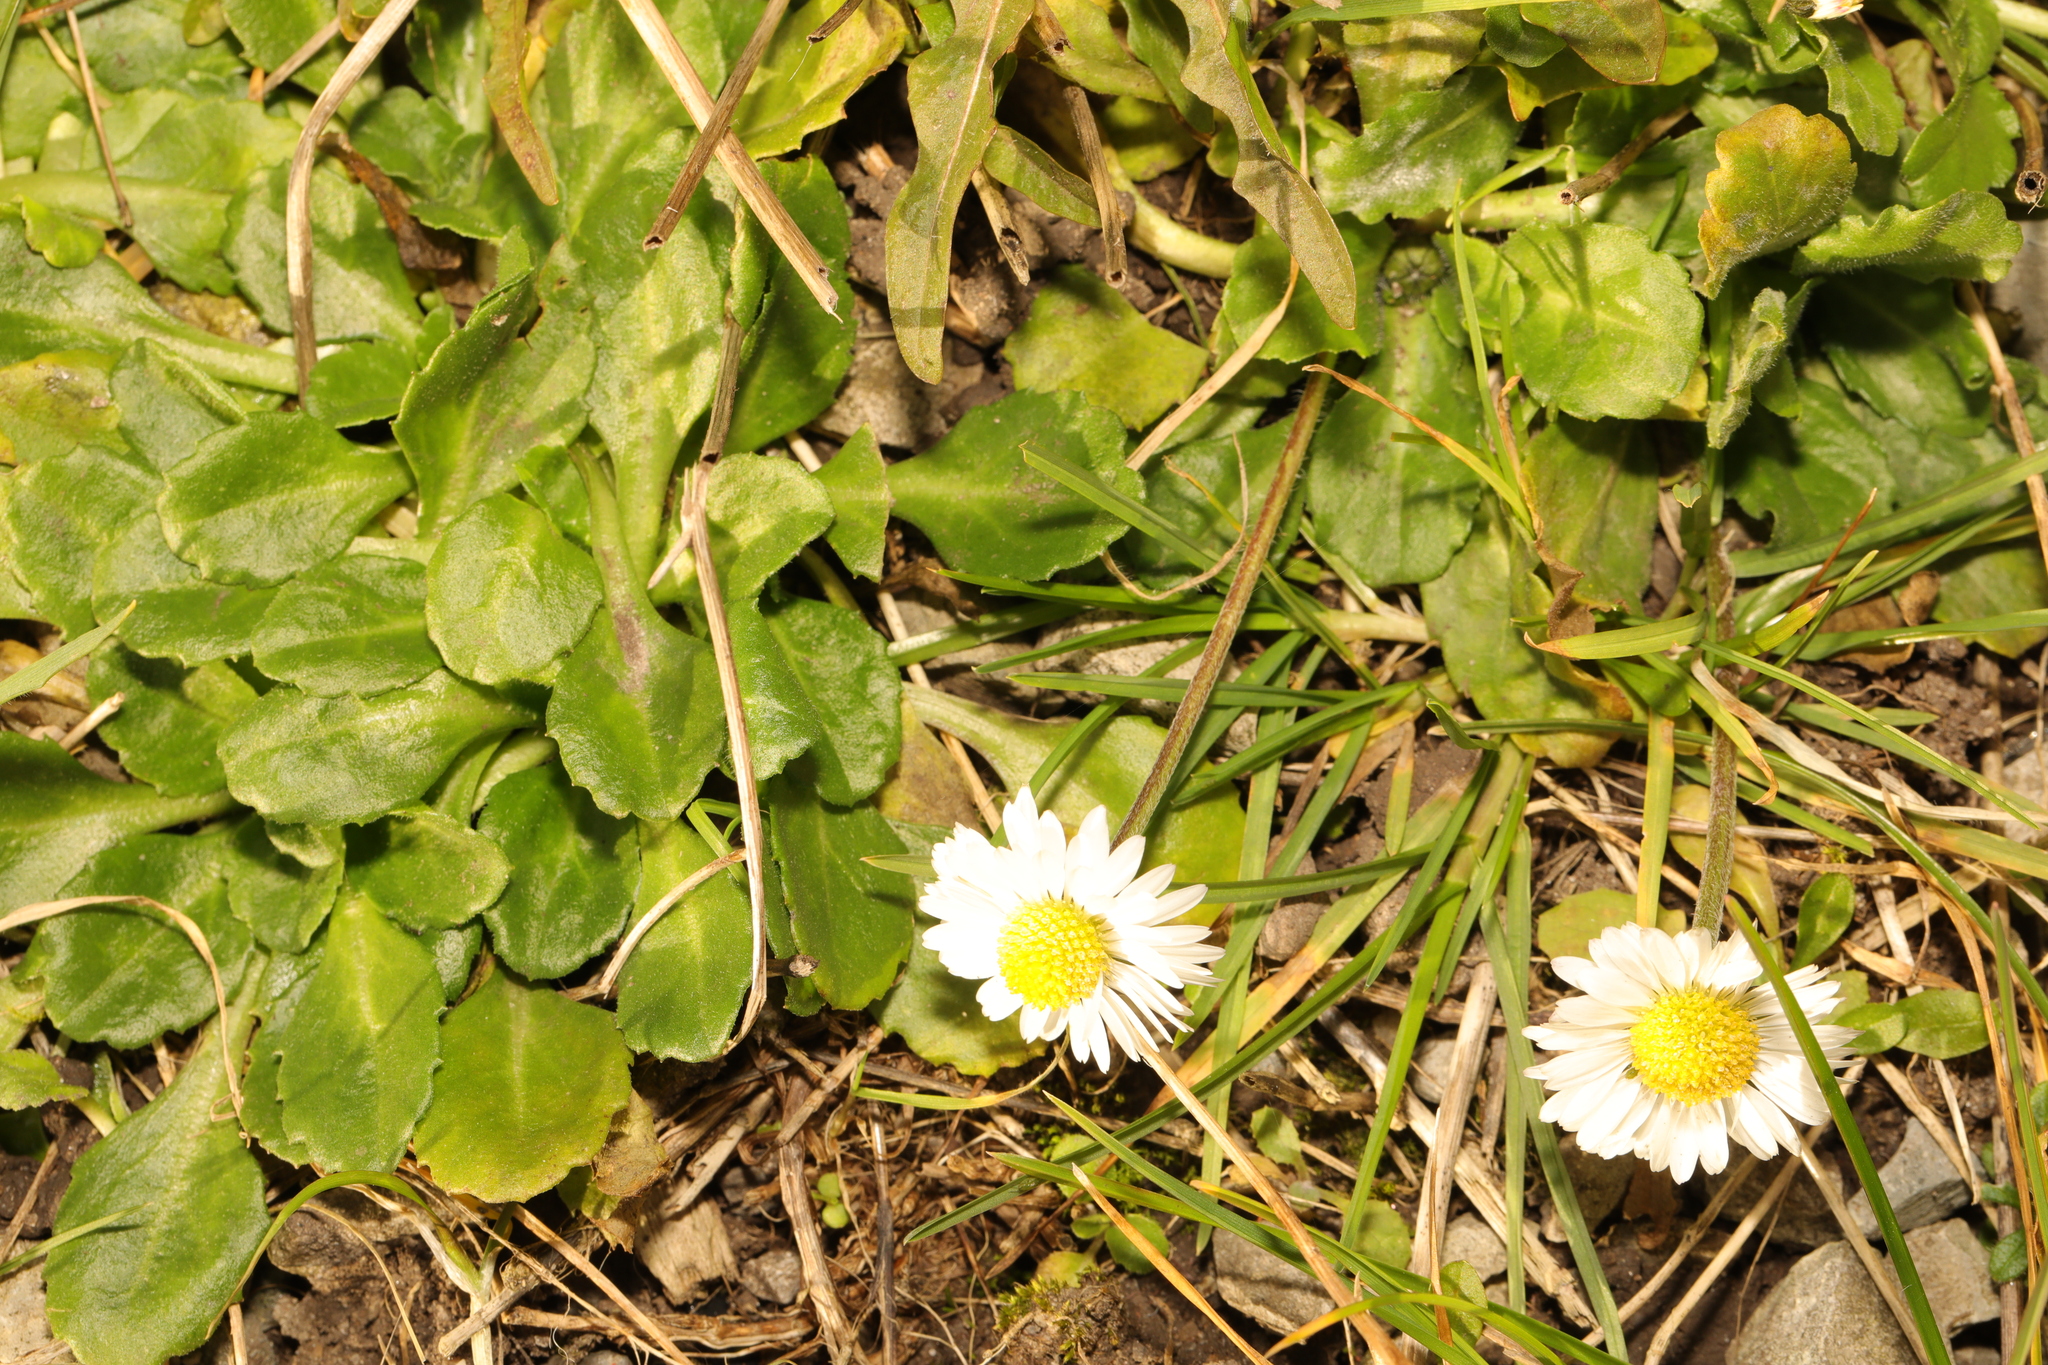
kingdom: Plantae
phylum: Tracheophyta
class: Magnoliopsida
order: Asterales
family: Asteraceae
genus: Bellis
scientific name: Bellis perennis
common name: Lawndaisy
